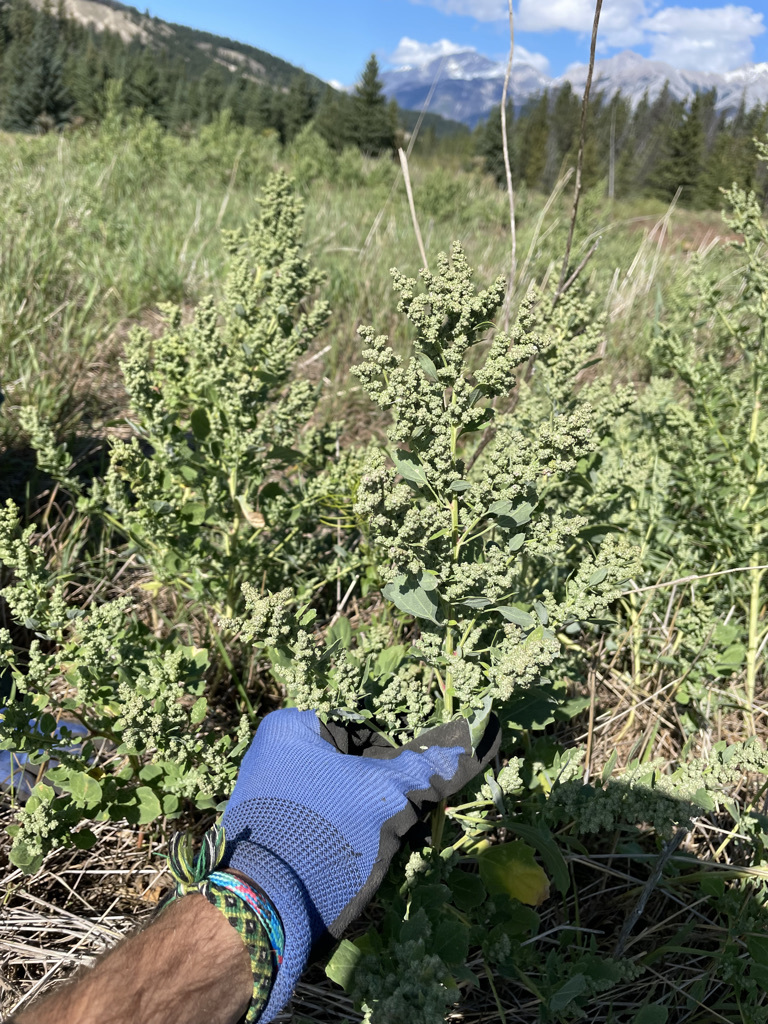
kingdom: Plantae
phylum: Tracheophyta
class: Magnoliopsida
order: Caryophyllales
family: Amaranthaceae
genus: Chenopodium
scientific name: Chenopodium album
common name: Fat-hen
